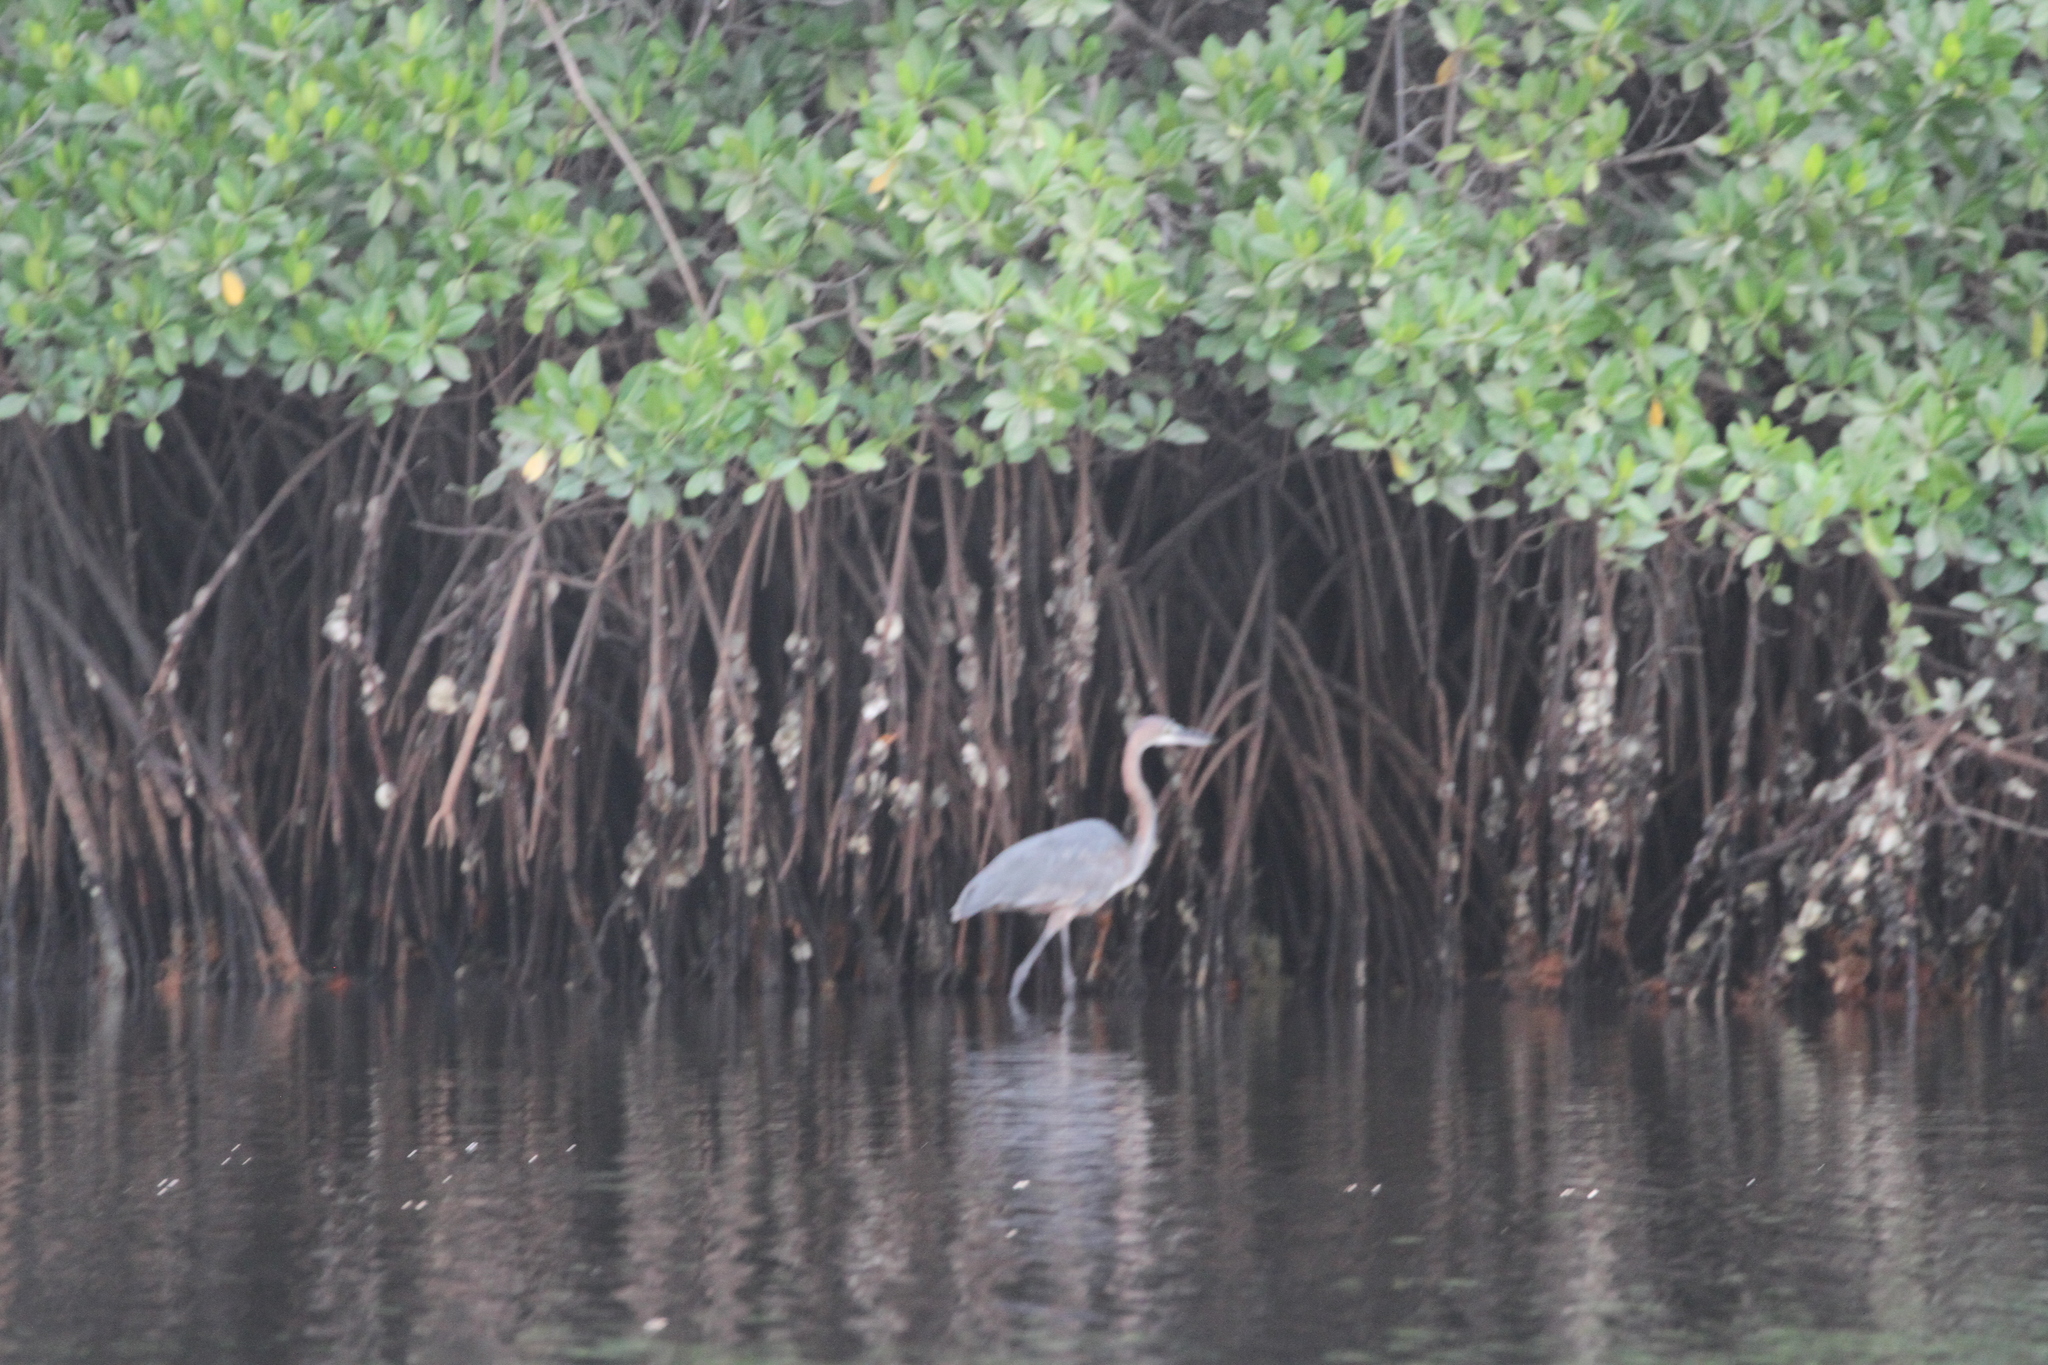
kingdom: Animalia
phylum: Chordata
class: Aves
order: Pelecaniformes
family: Ardeidae
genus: Ardea
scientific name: Ardea goliath
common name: Goliath heron
